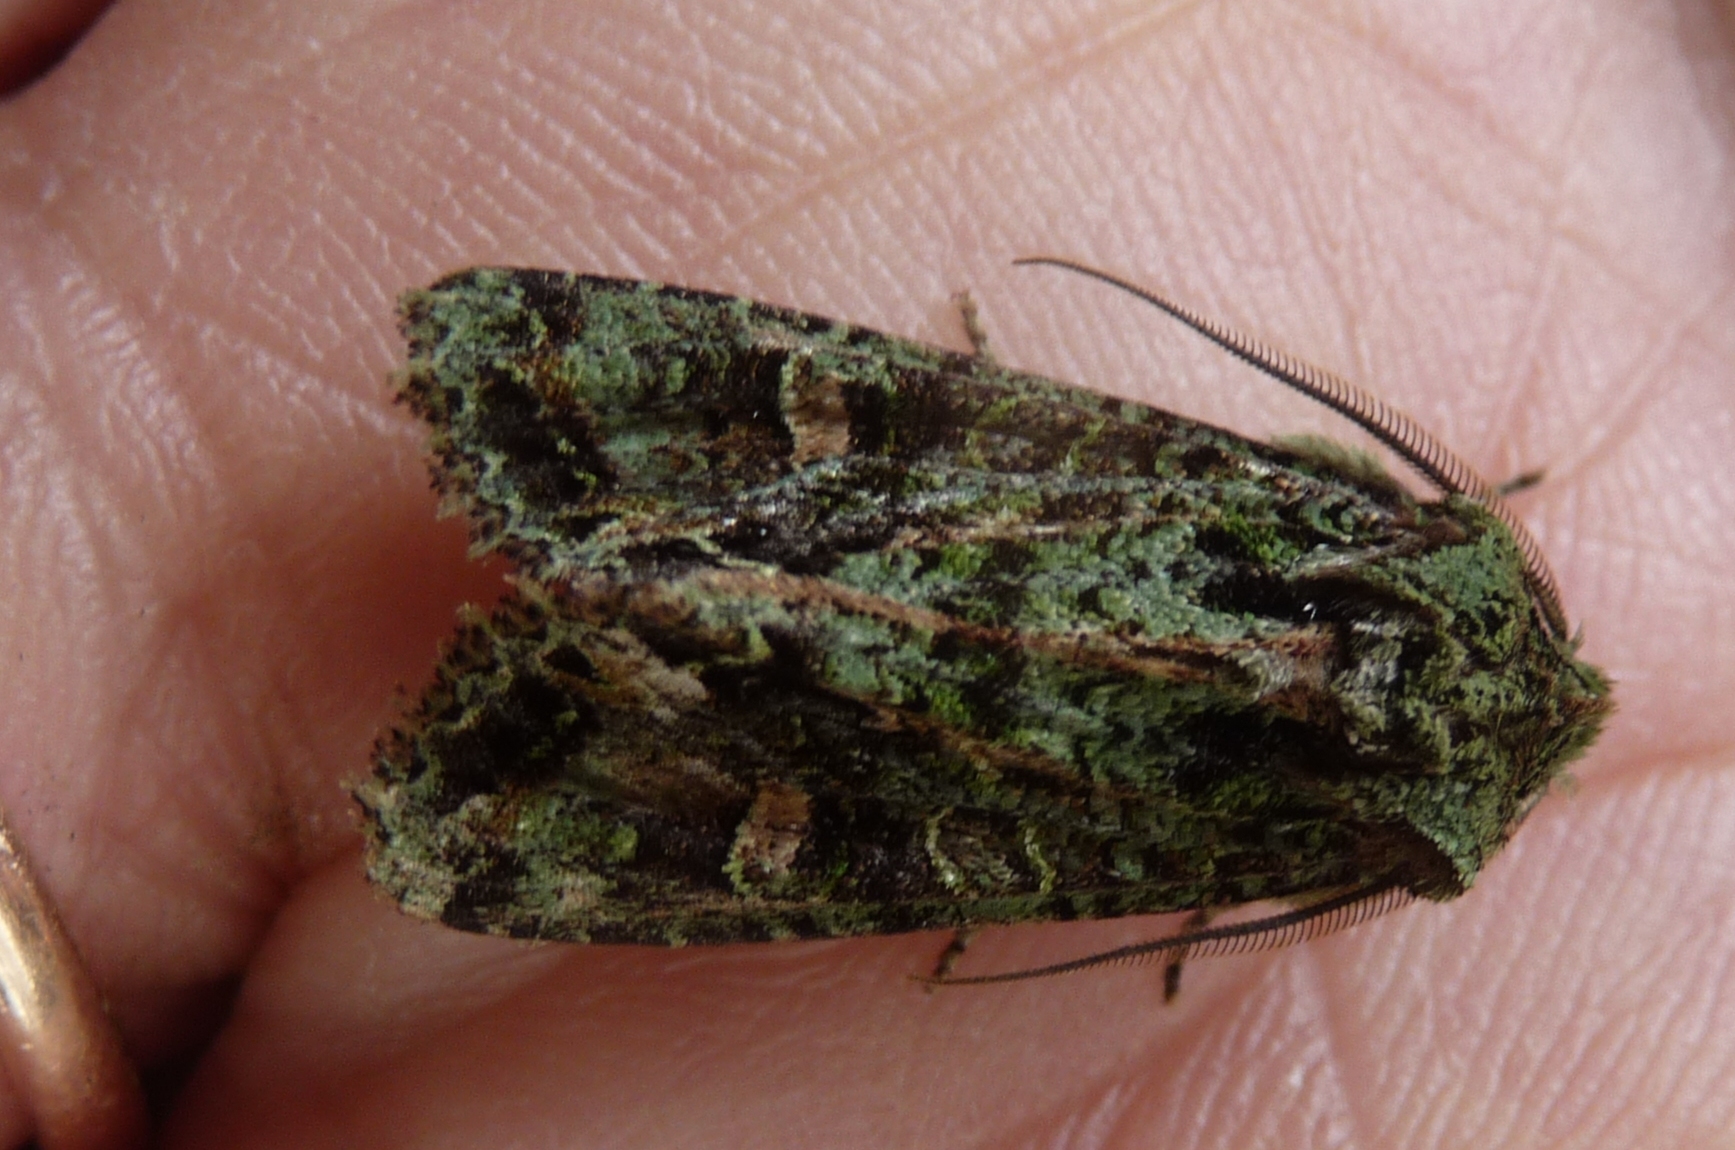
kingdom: Animalia
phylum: Arthropoda
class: Insecta
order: Lepidoptera
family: Noctuidae
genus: Ichneutica
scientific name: Ichneutica
